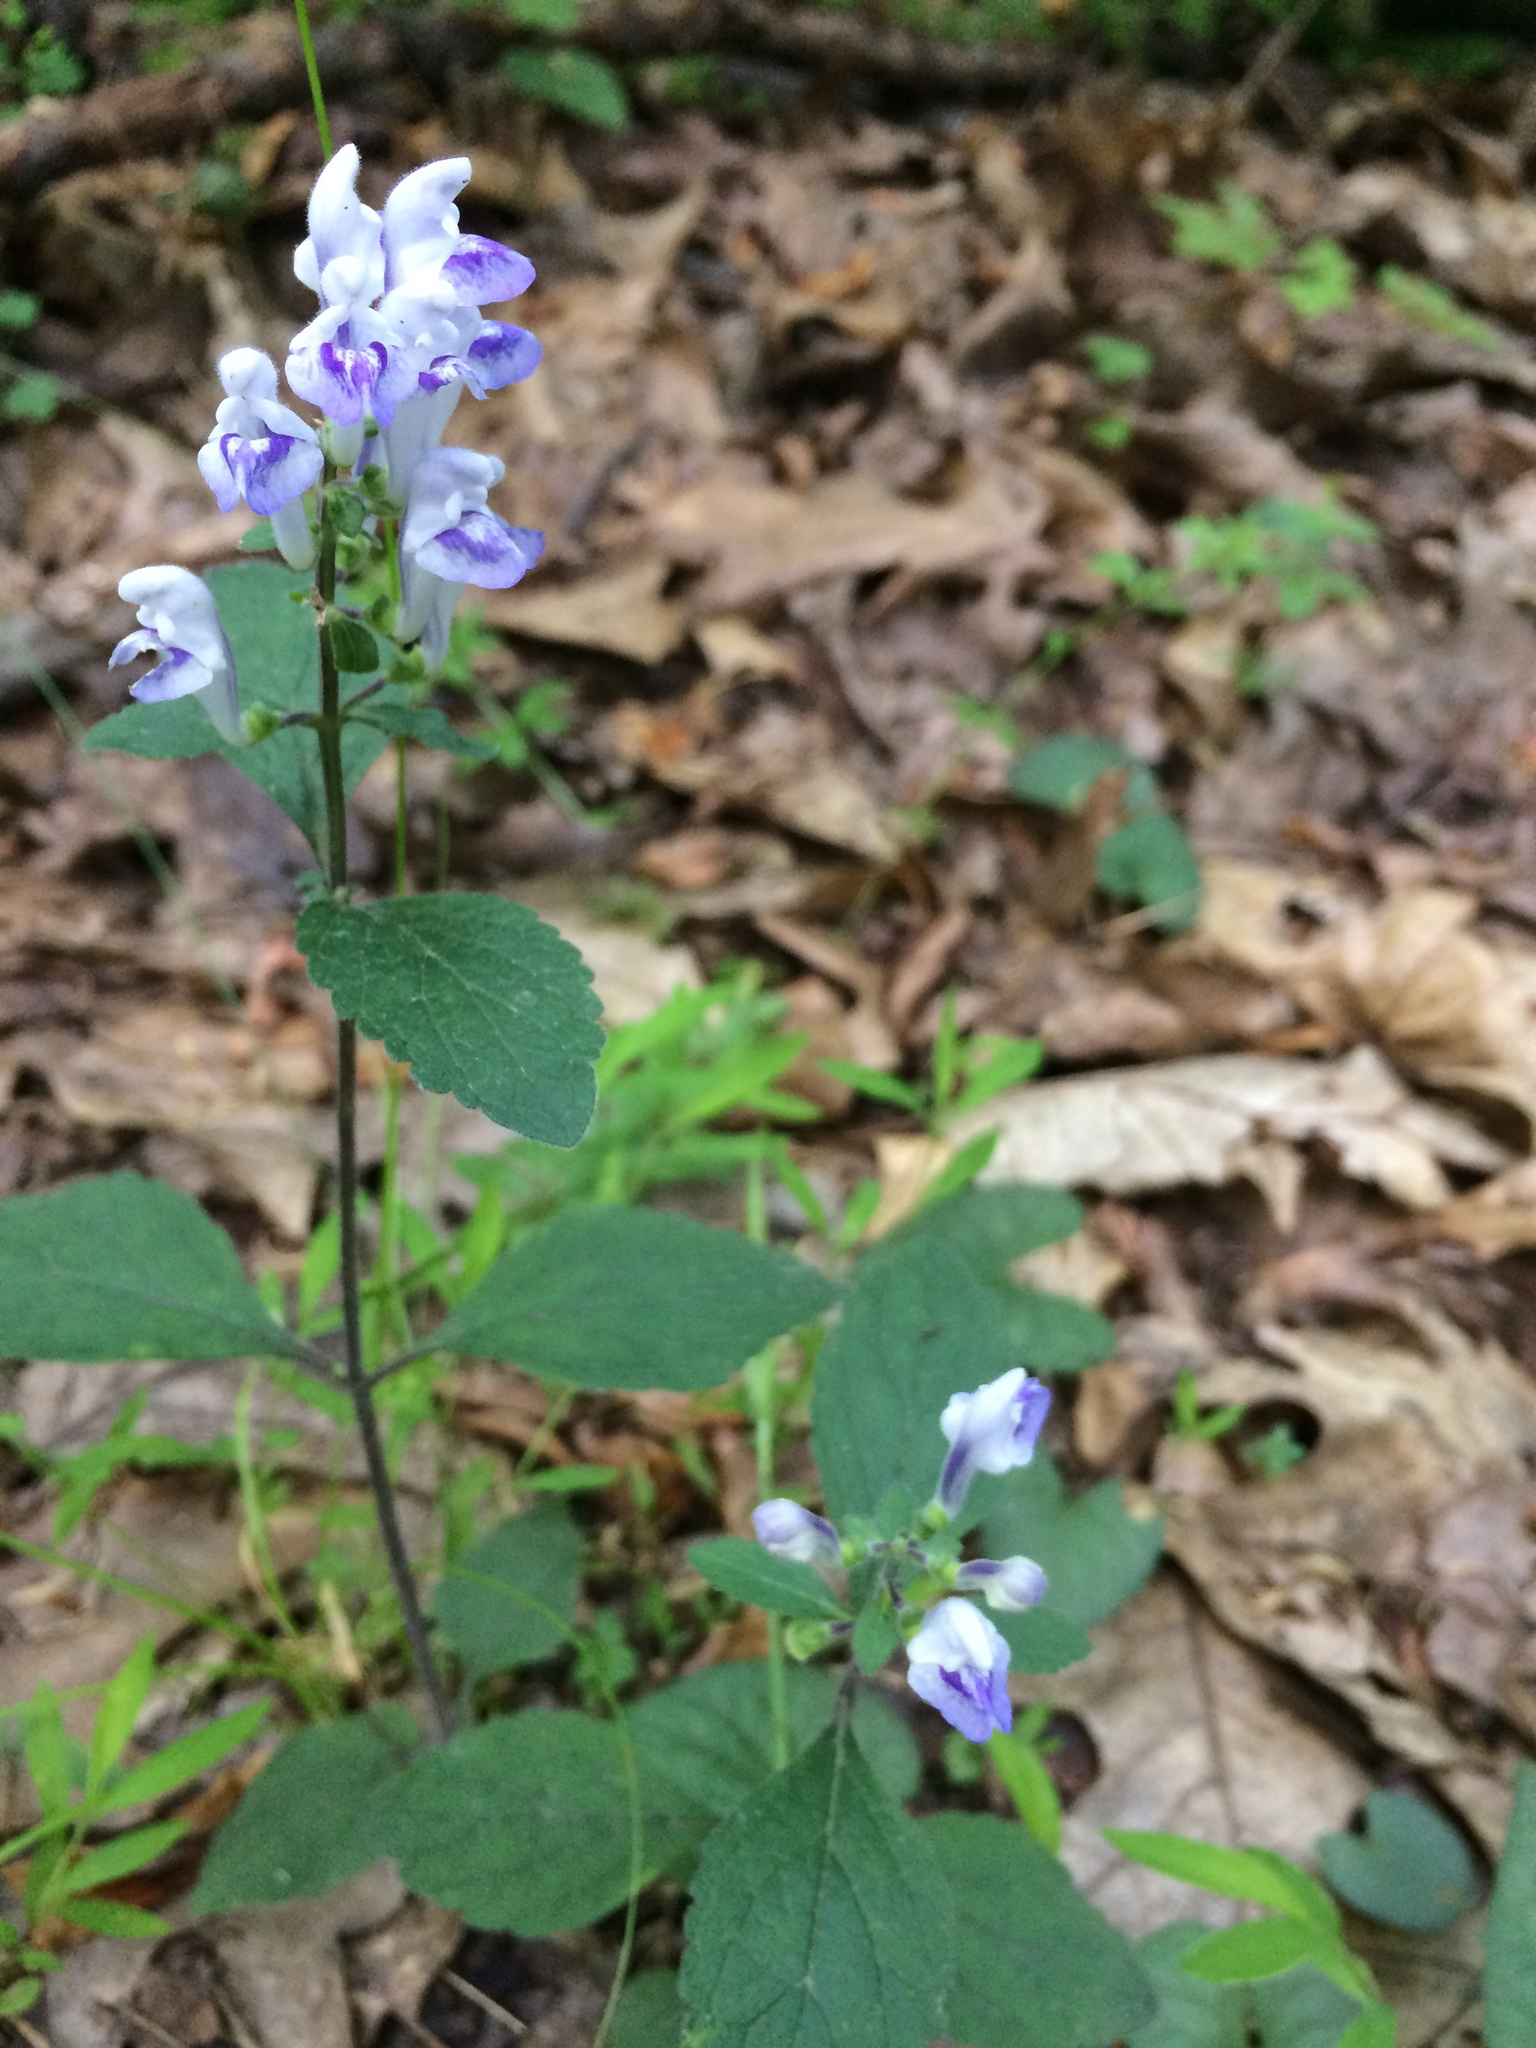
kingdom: Plantae
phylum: Tracheophyta
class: Magnoliopsida
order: Lamiales
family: Lamiaceae
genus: Scutellaria
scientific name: Scutellaria elliptica
